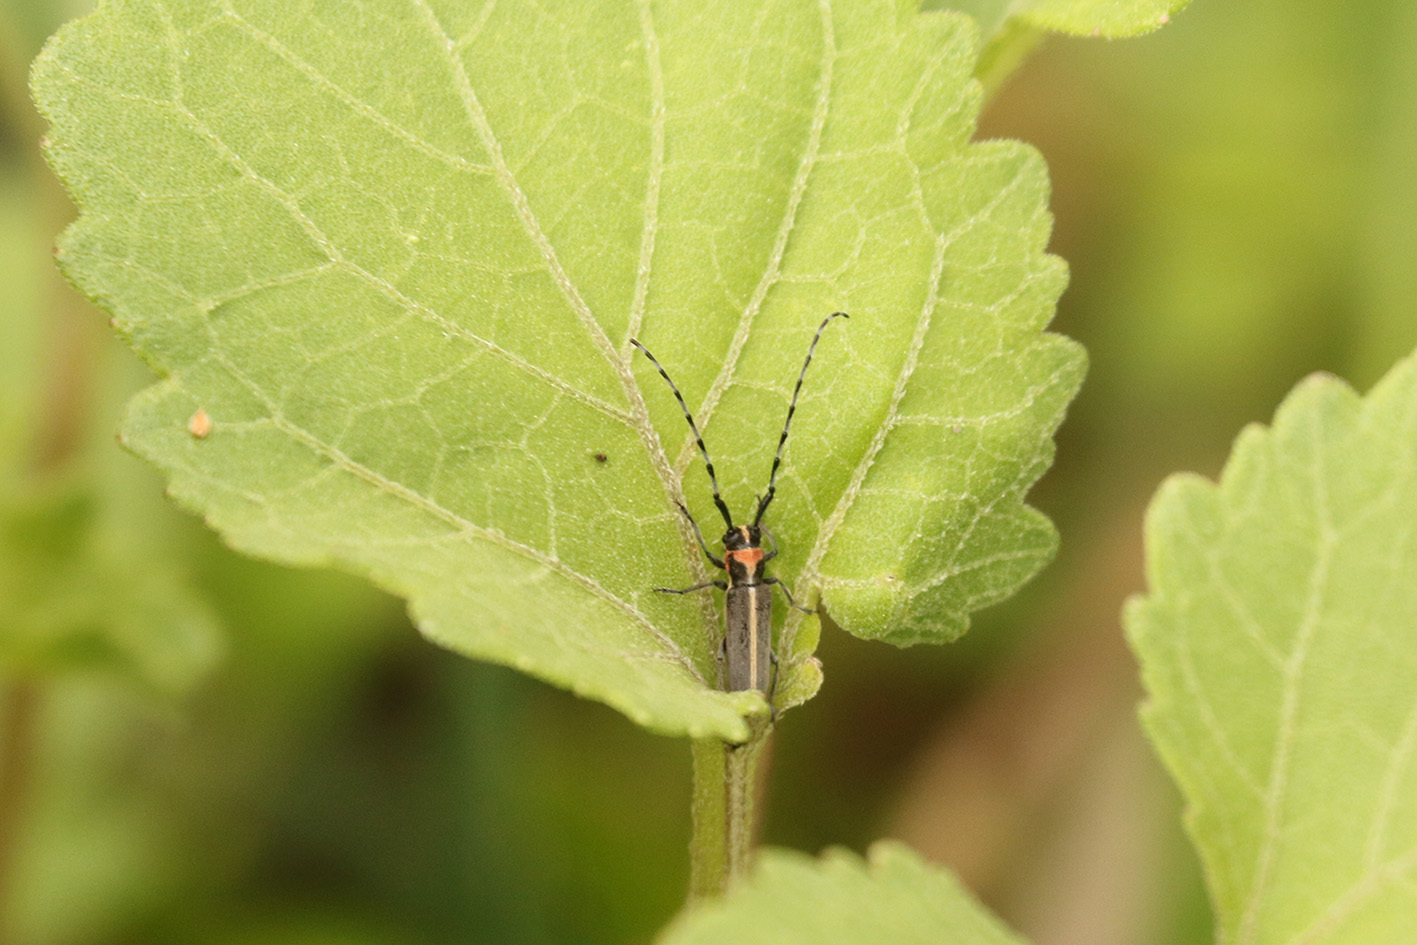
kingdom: Animalia
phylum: Arthropoda
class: Insecta
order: Coleoptera
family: Cerambycidae
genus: Apagomerella
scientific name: Apagomerella versicolor
